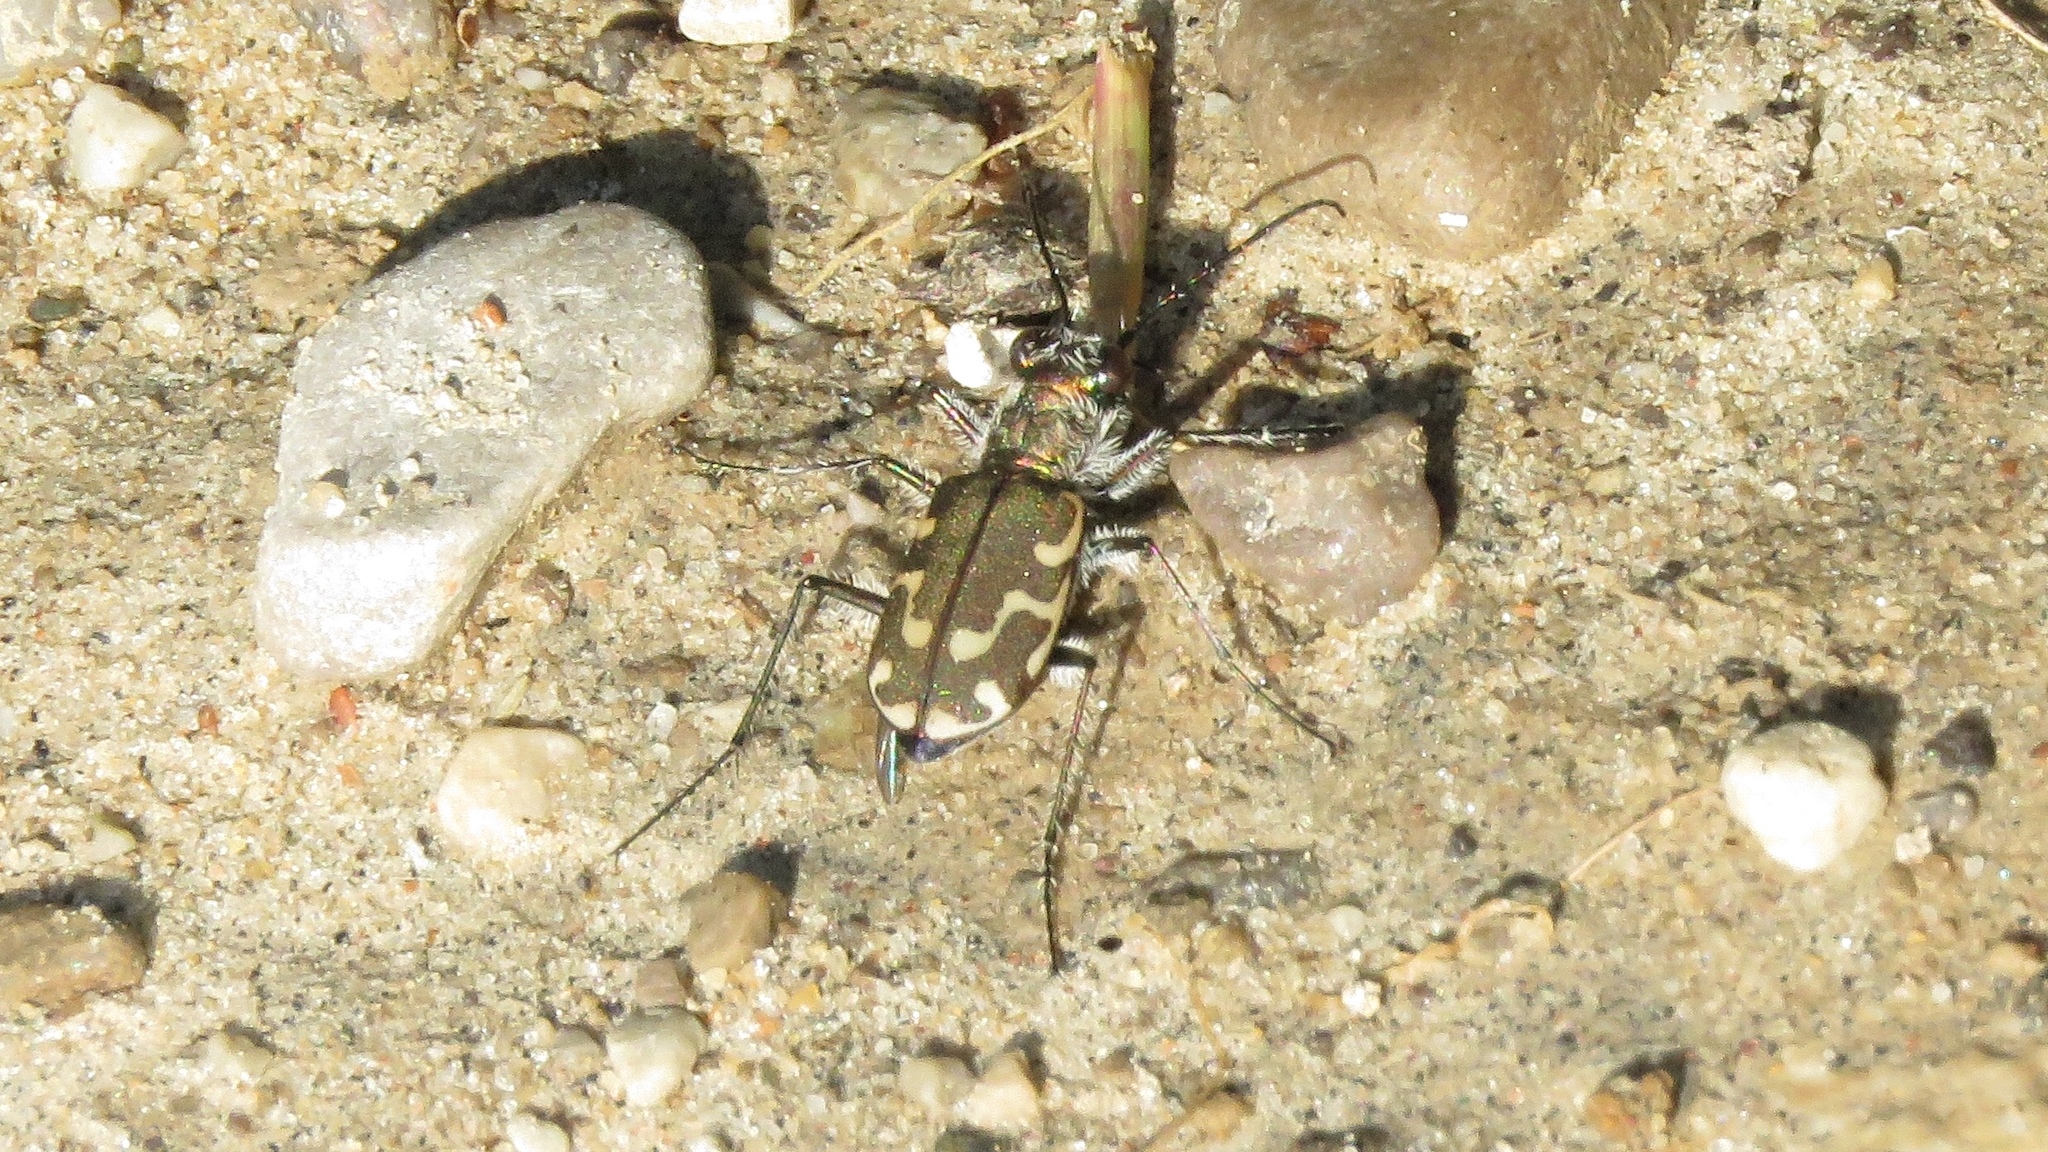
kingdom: Animalia
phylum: Arthropoda
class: Insecta
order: Coleoptera
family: Carabidae
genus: Cicindela
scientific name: Cicindela repanda
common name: Bronzed tiger beetle
